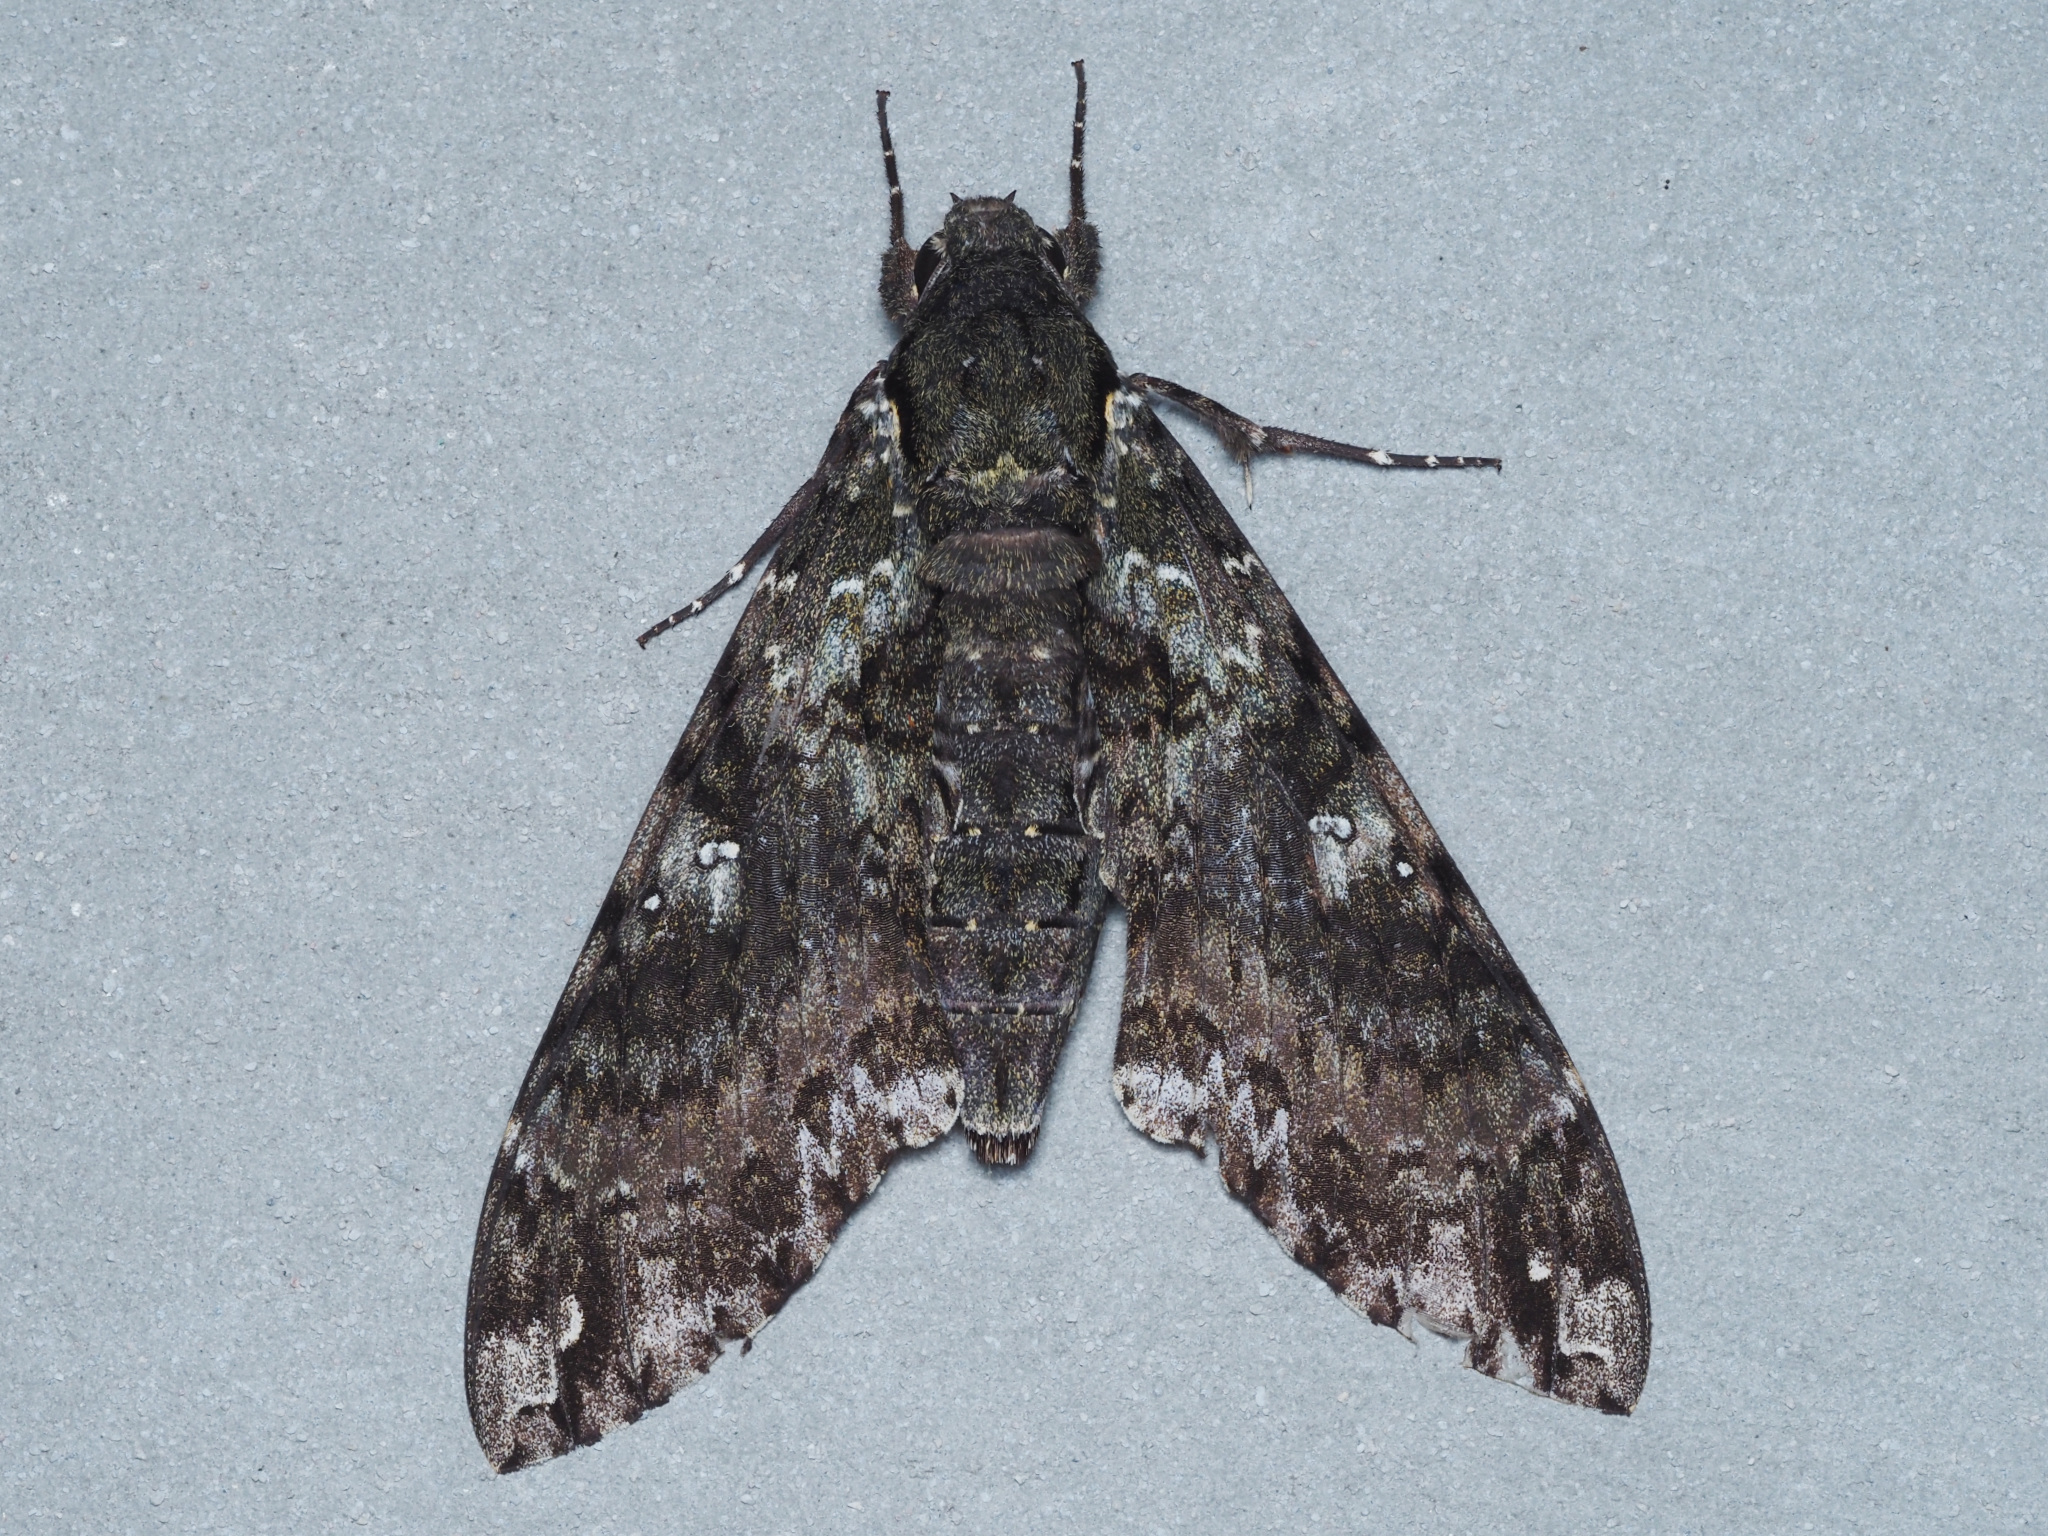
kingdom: Animalia
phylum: Arthropoda
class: Insecta
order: Lepidoptera
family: Sphingidae
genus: Cocytius
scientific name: Cocytius duponchel
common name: Duponchel's sphinx
